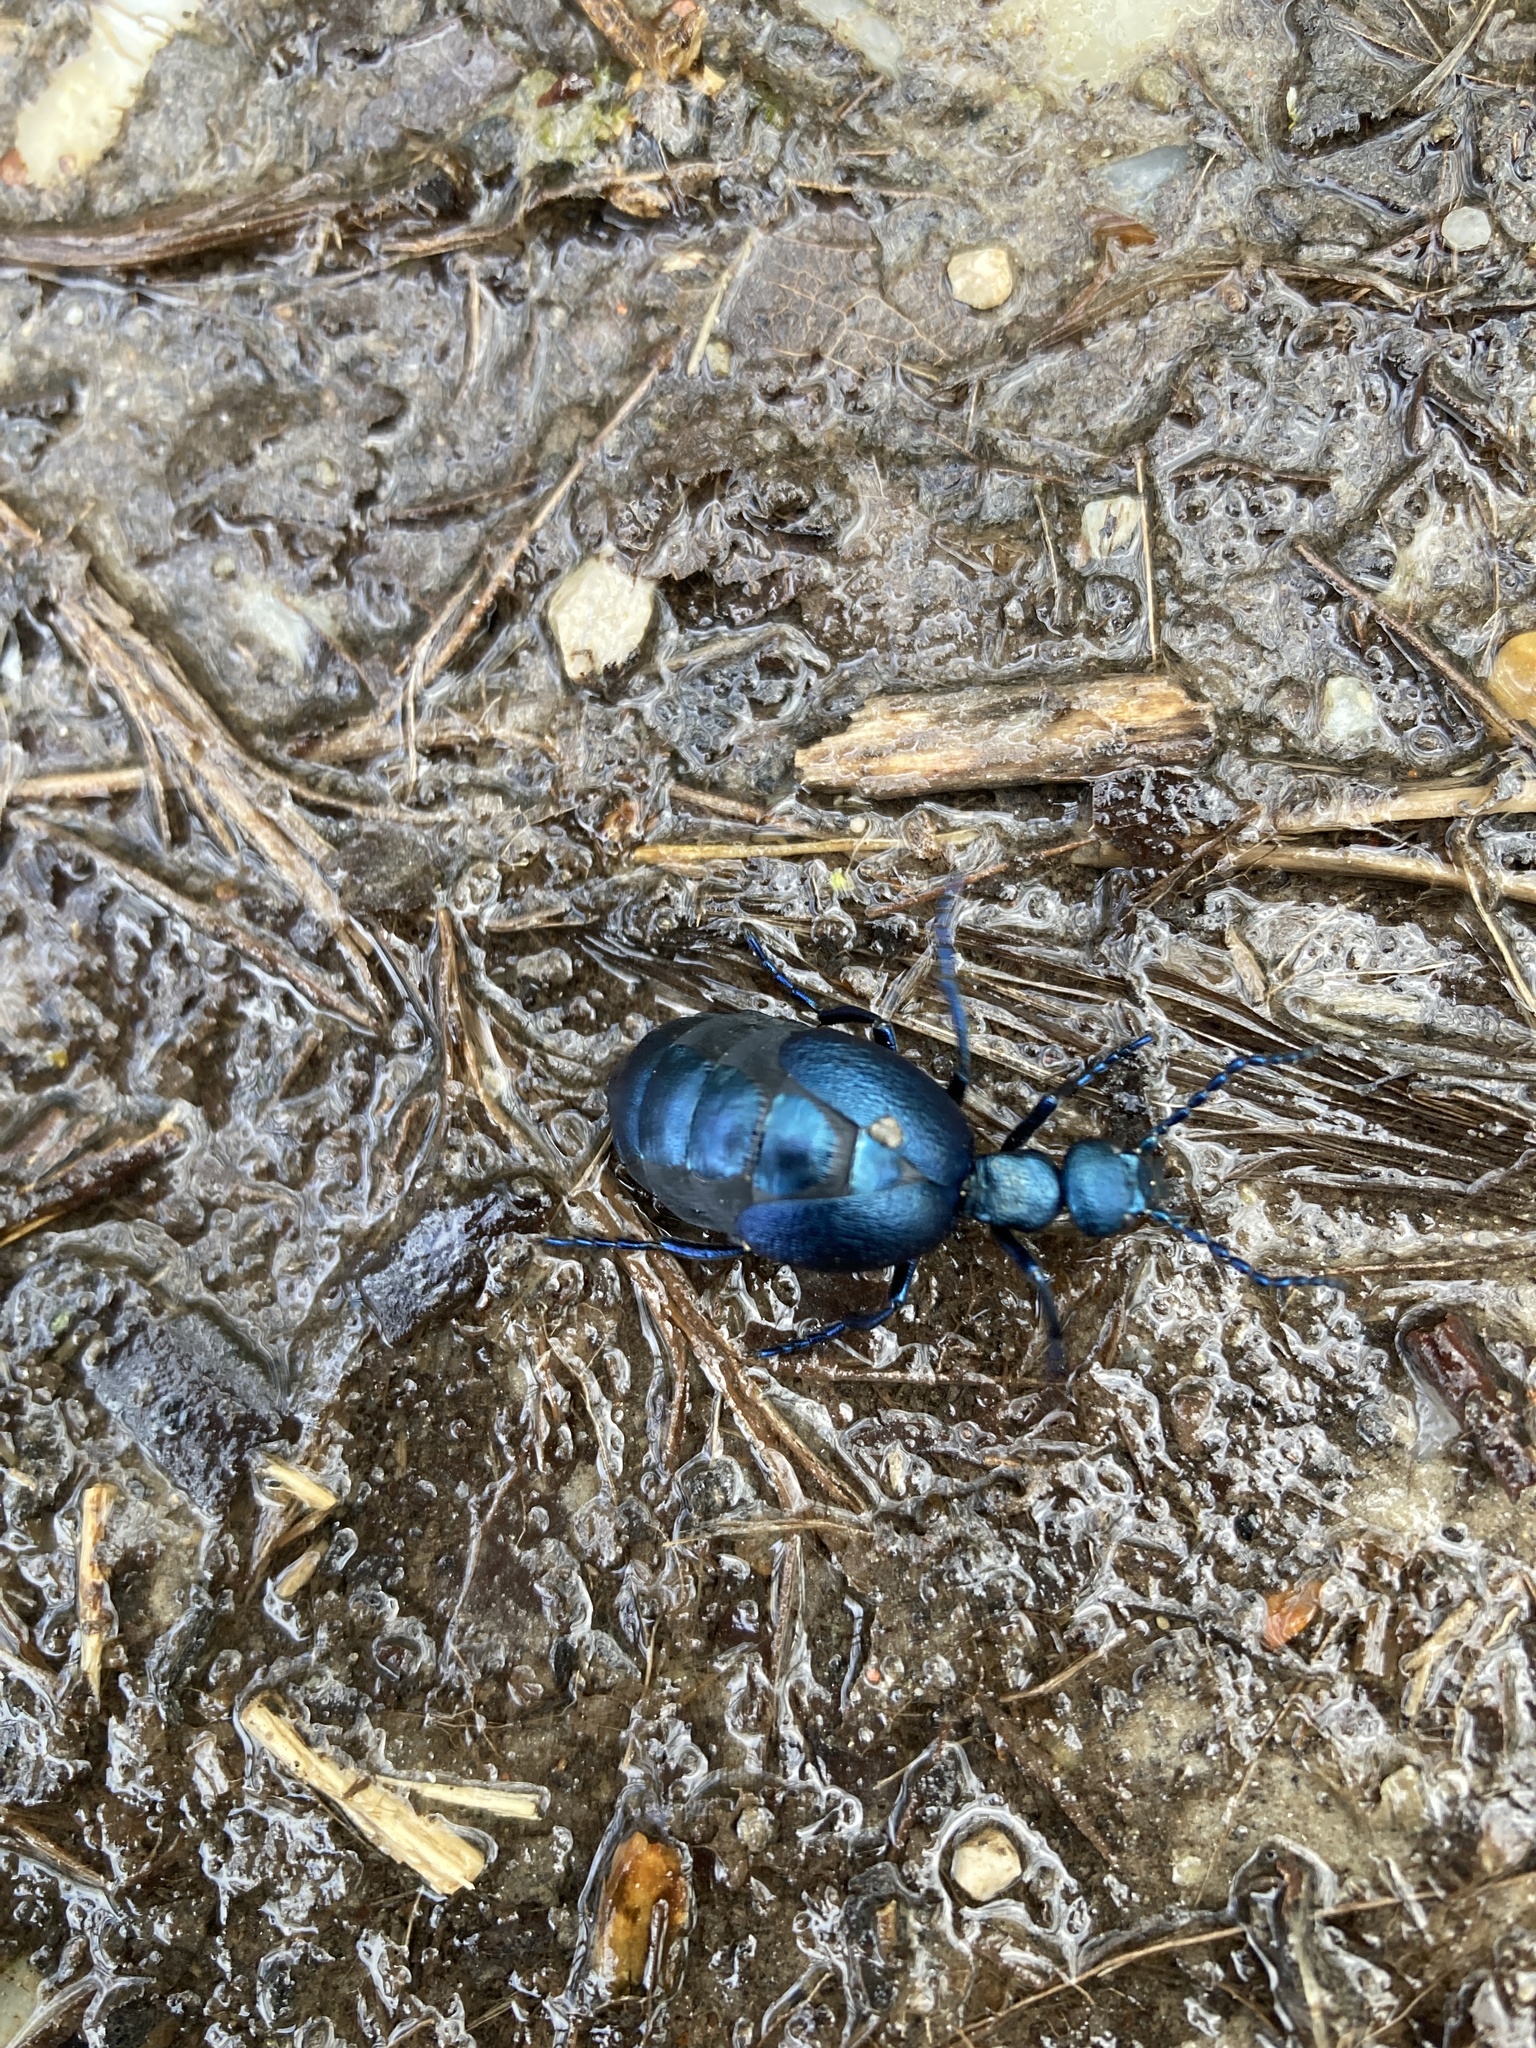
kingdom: Animalia
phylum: Arthropoda
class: Insecta
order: Coleoptera
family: Meloidae
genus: Meloe
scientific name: Meloe violaceus
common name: Violet oil-beetle
